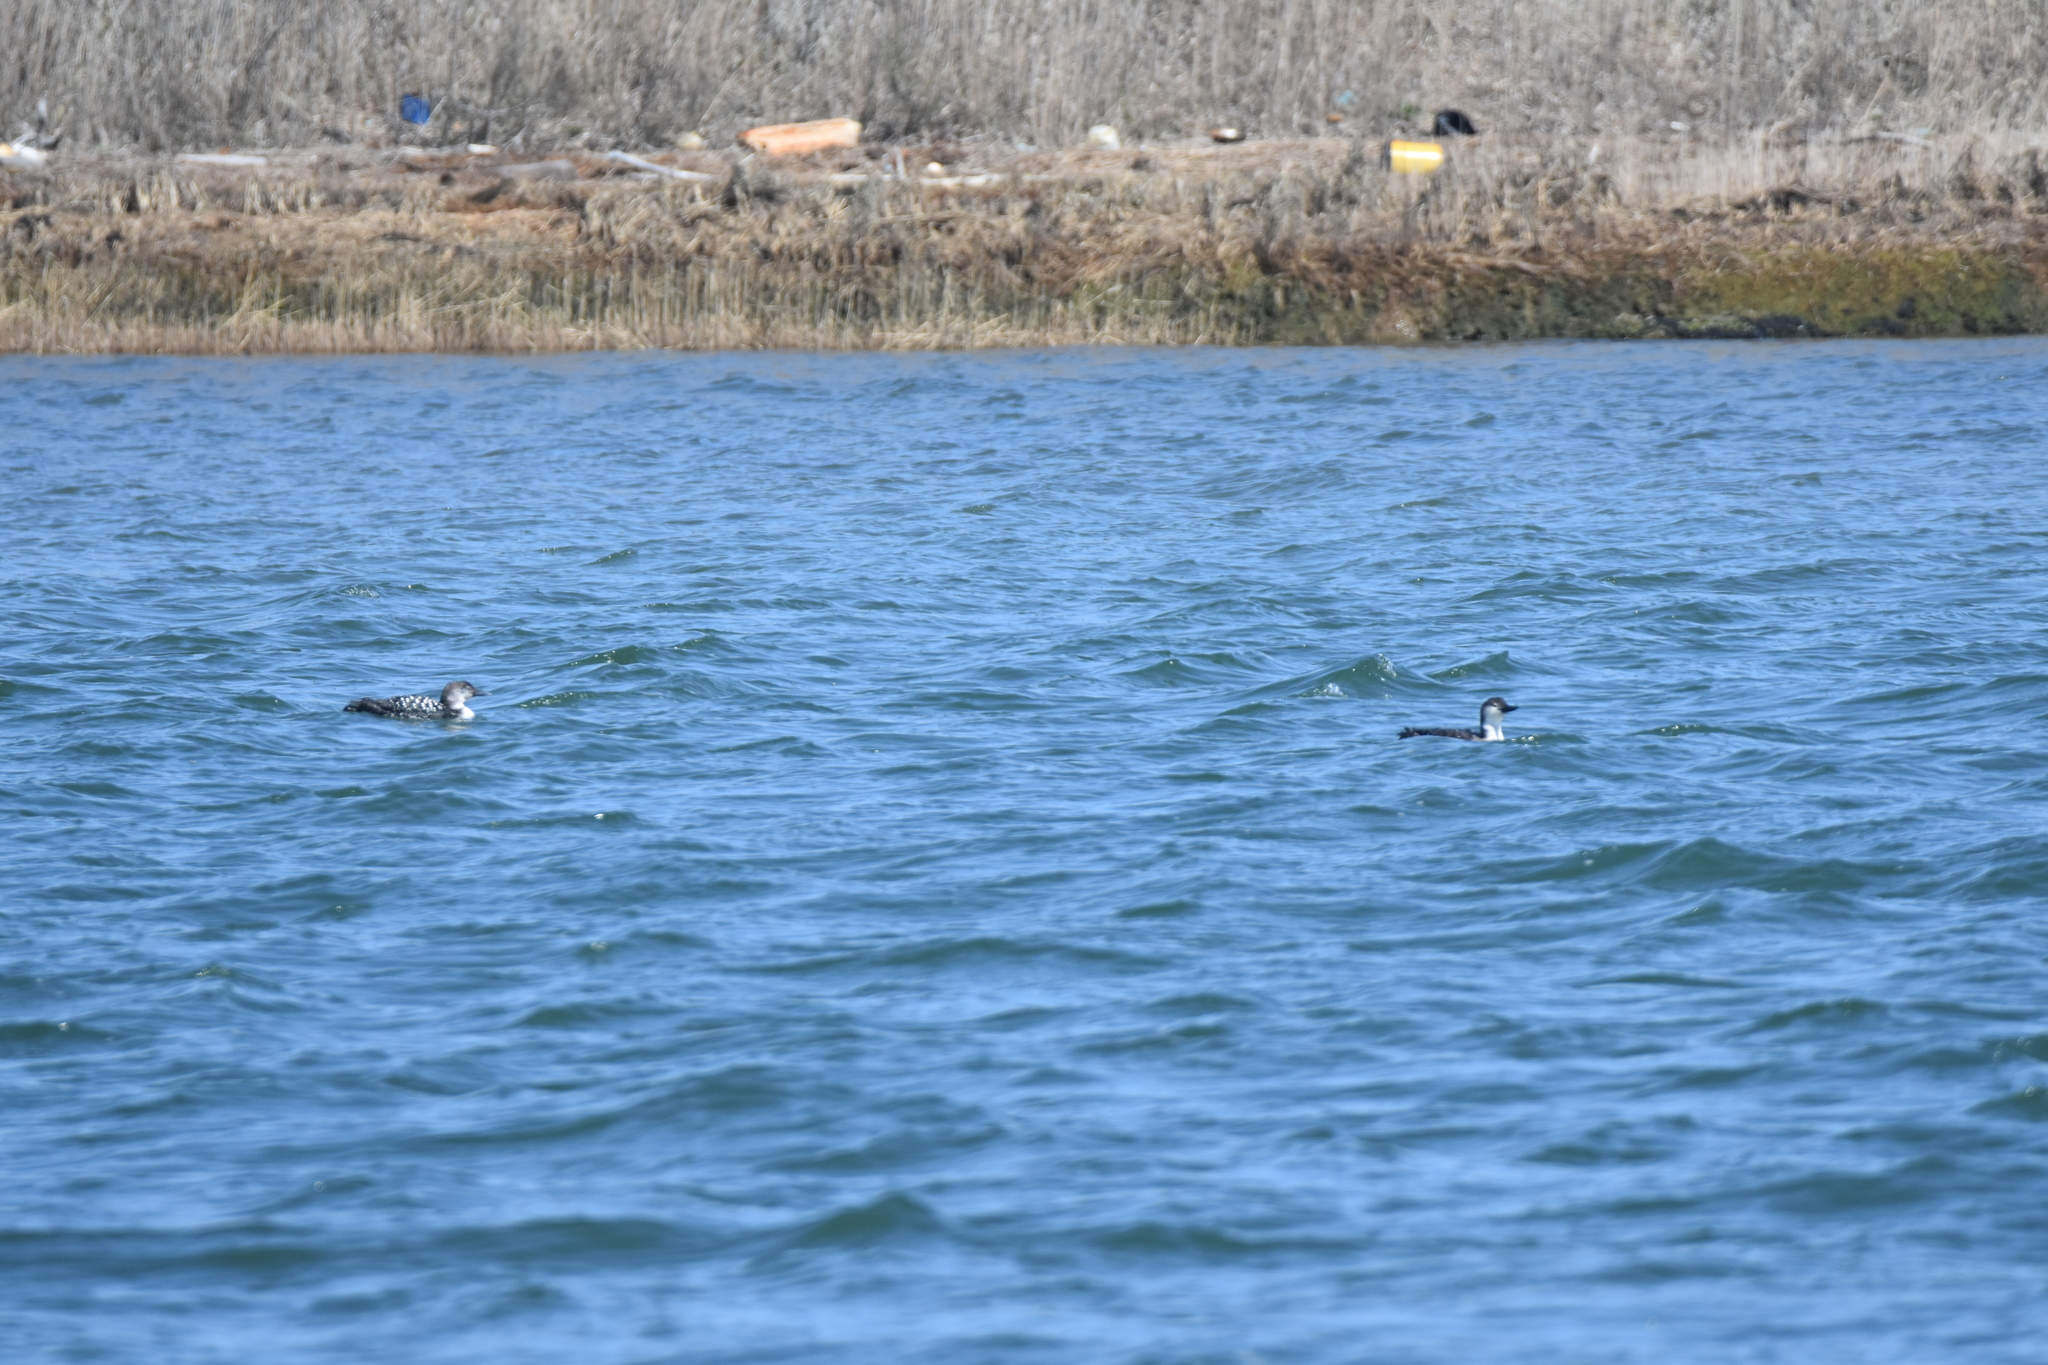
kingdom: Animalia
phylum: Chordata
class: Aves
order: Gaviiformes
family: Gaviidae
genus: Gavia
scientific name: Gavia immer
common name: Common loon
